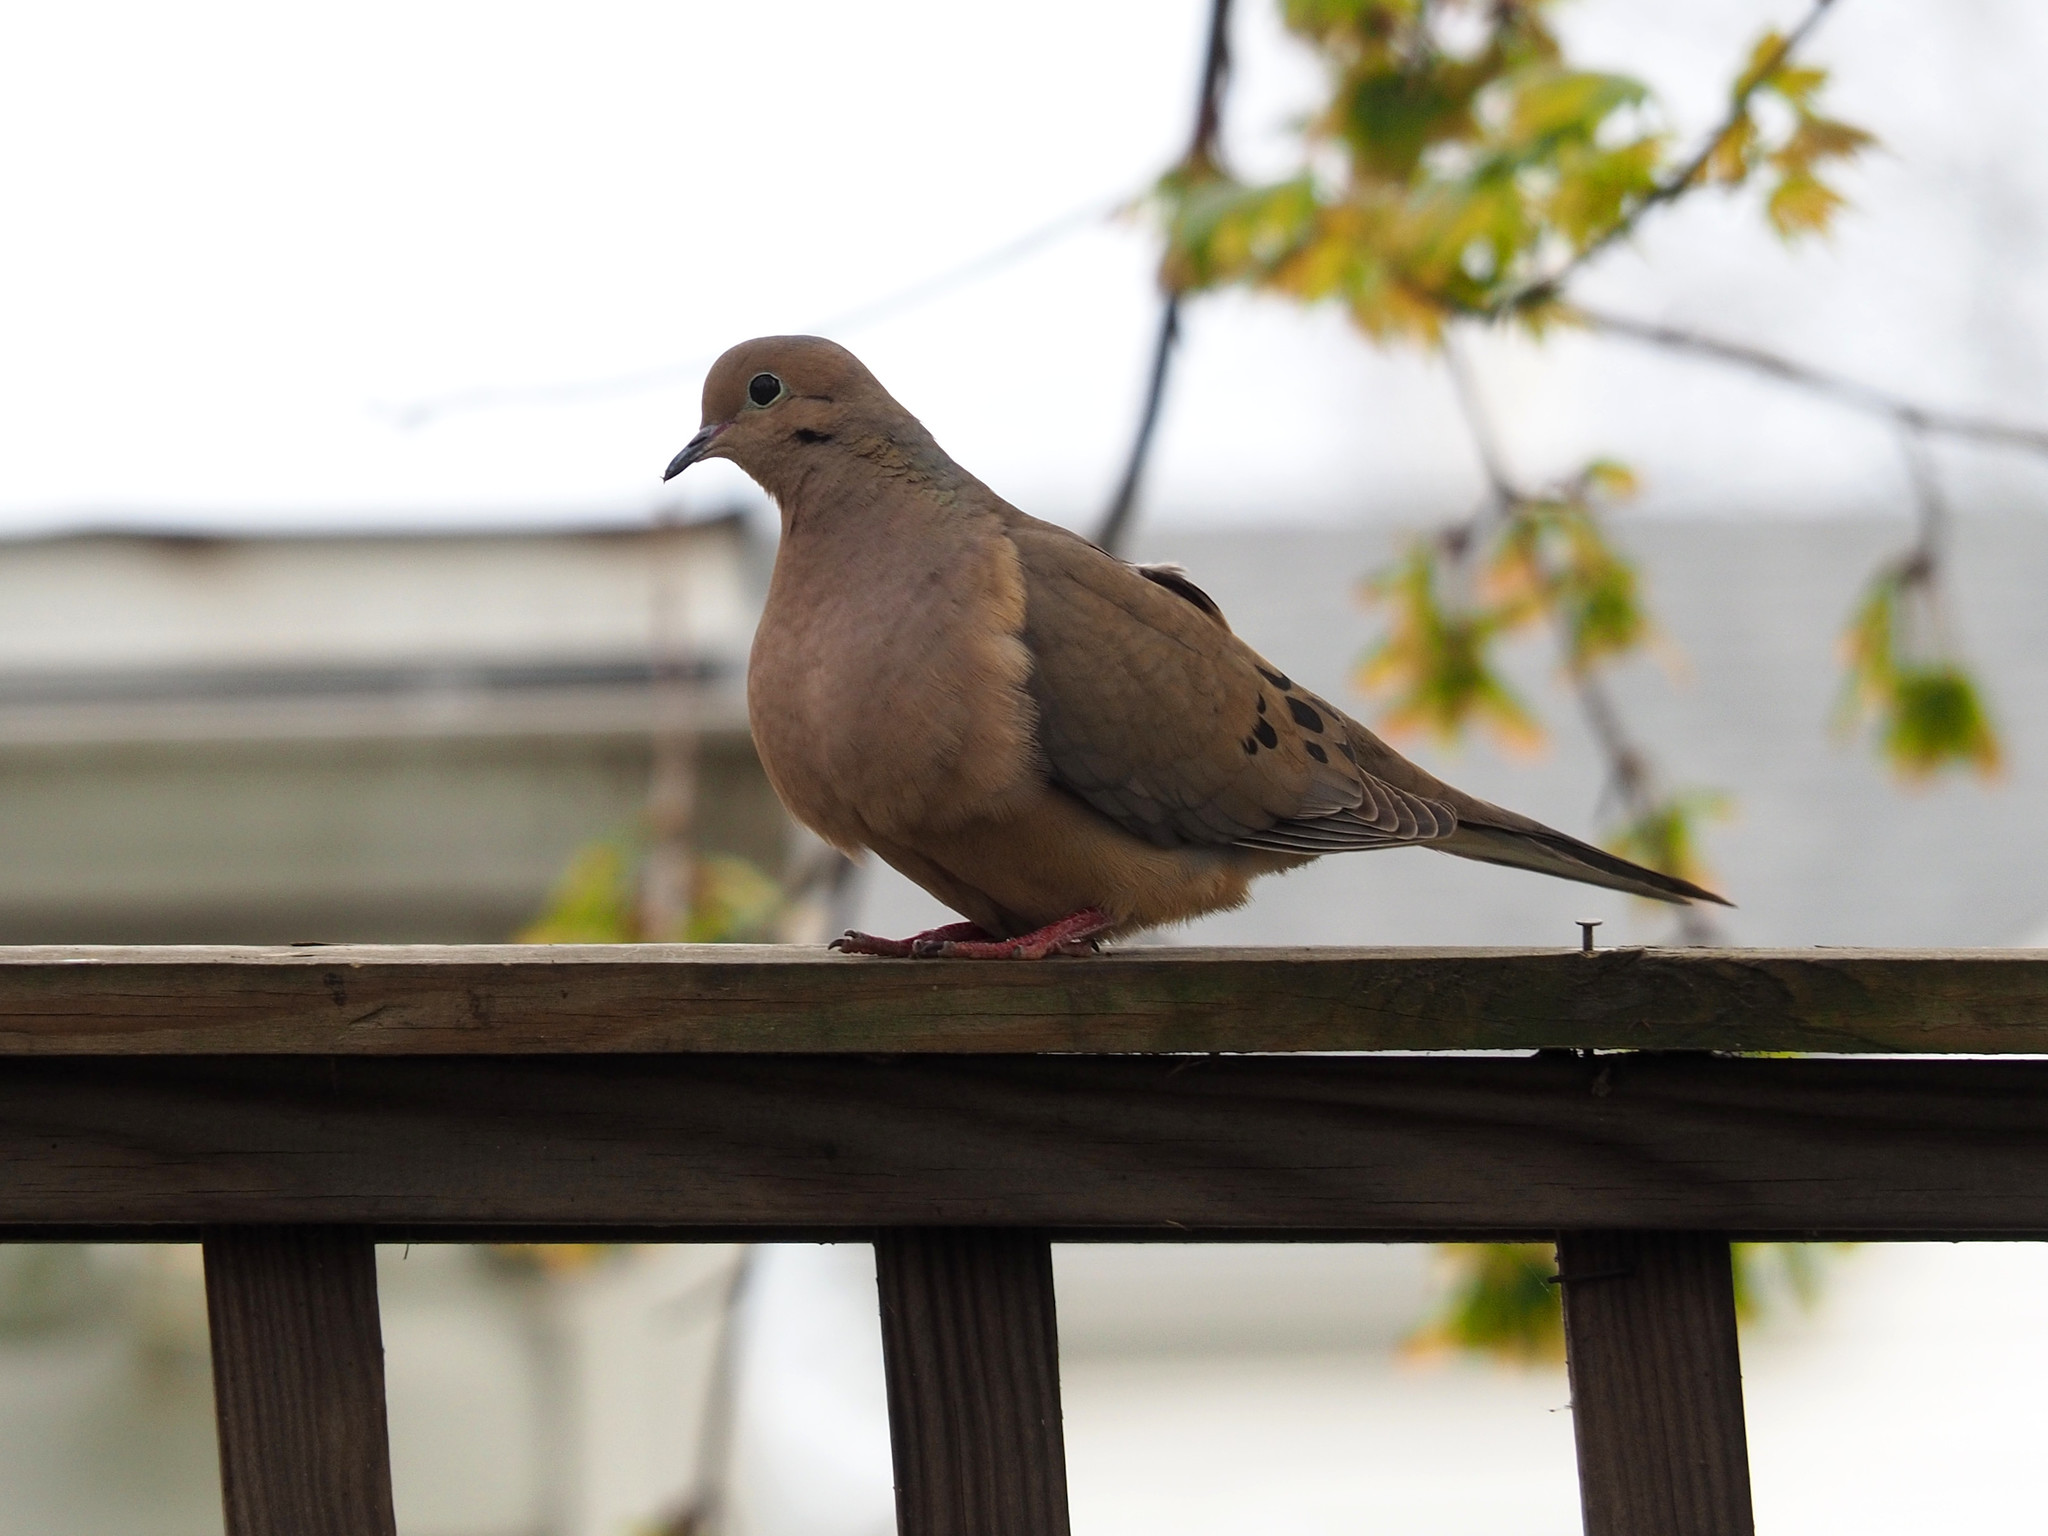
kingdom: Animalia
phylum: Chordata
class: Aves
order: Columbiformes
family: Columbidae
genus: Zenaida
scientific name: Zenaida macroura
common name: Mourning dove
